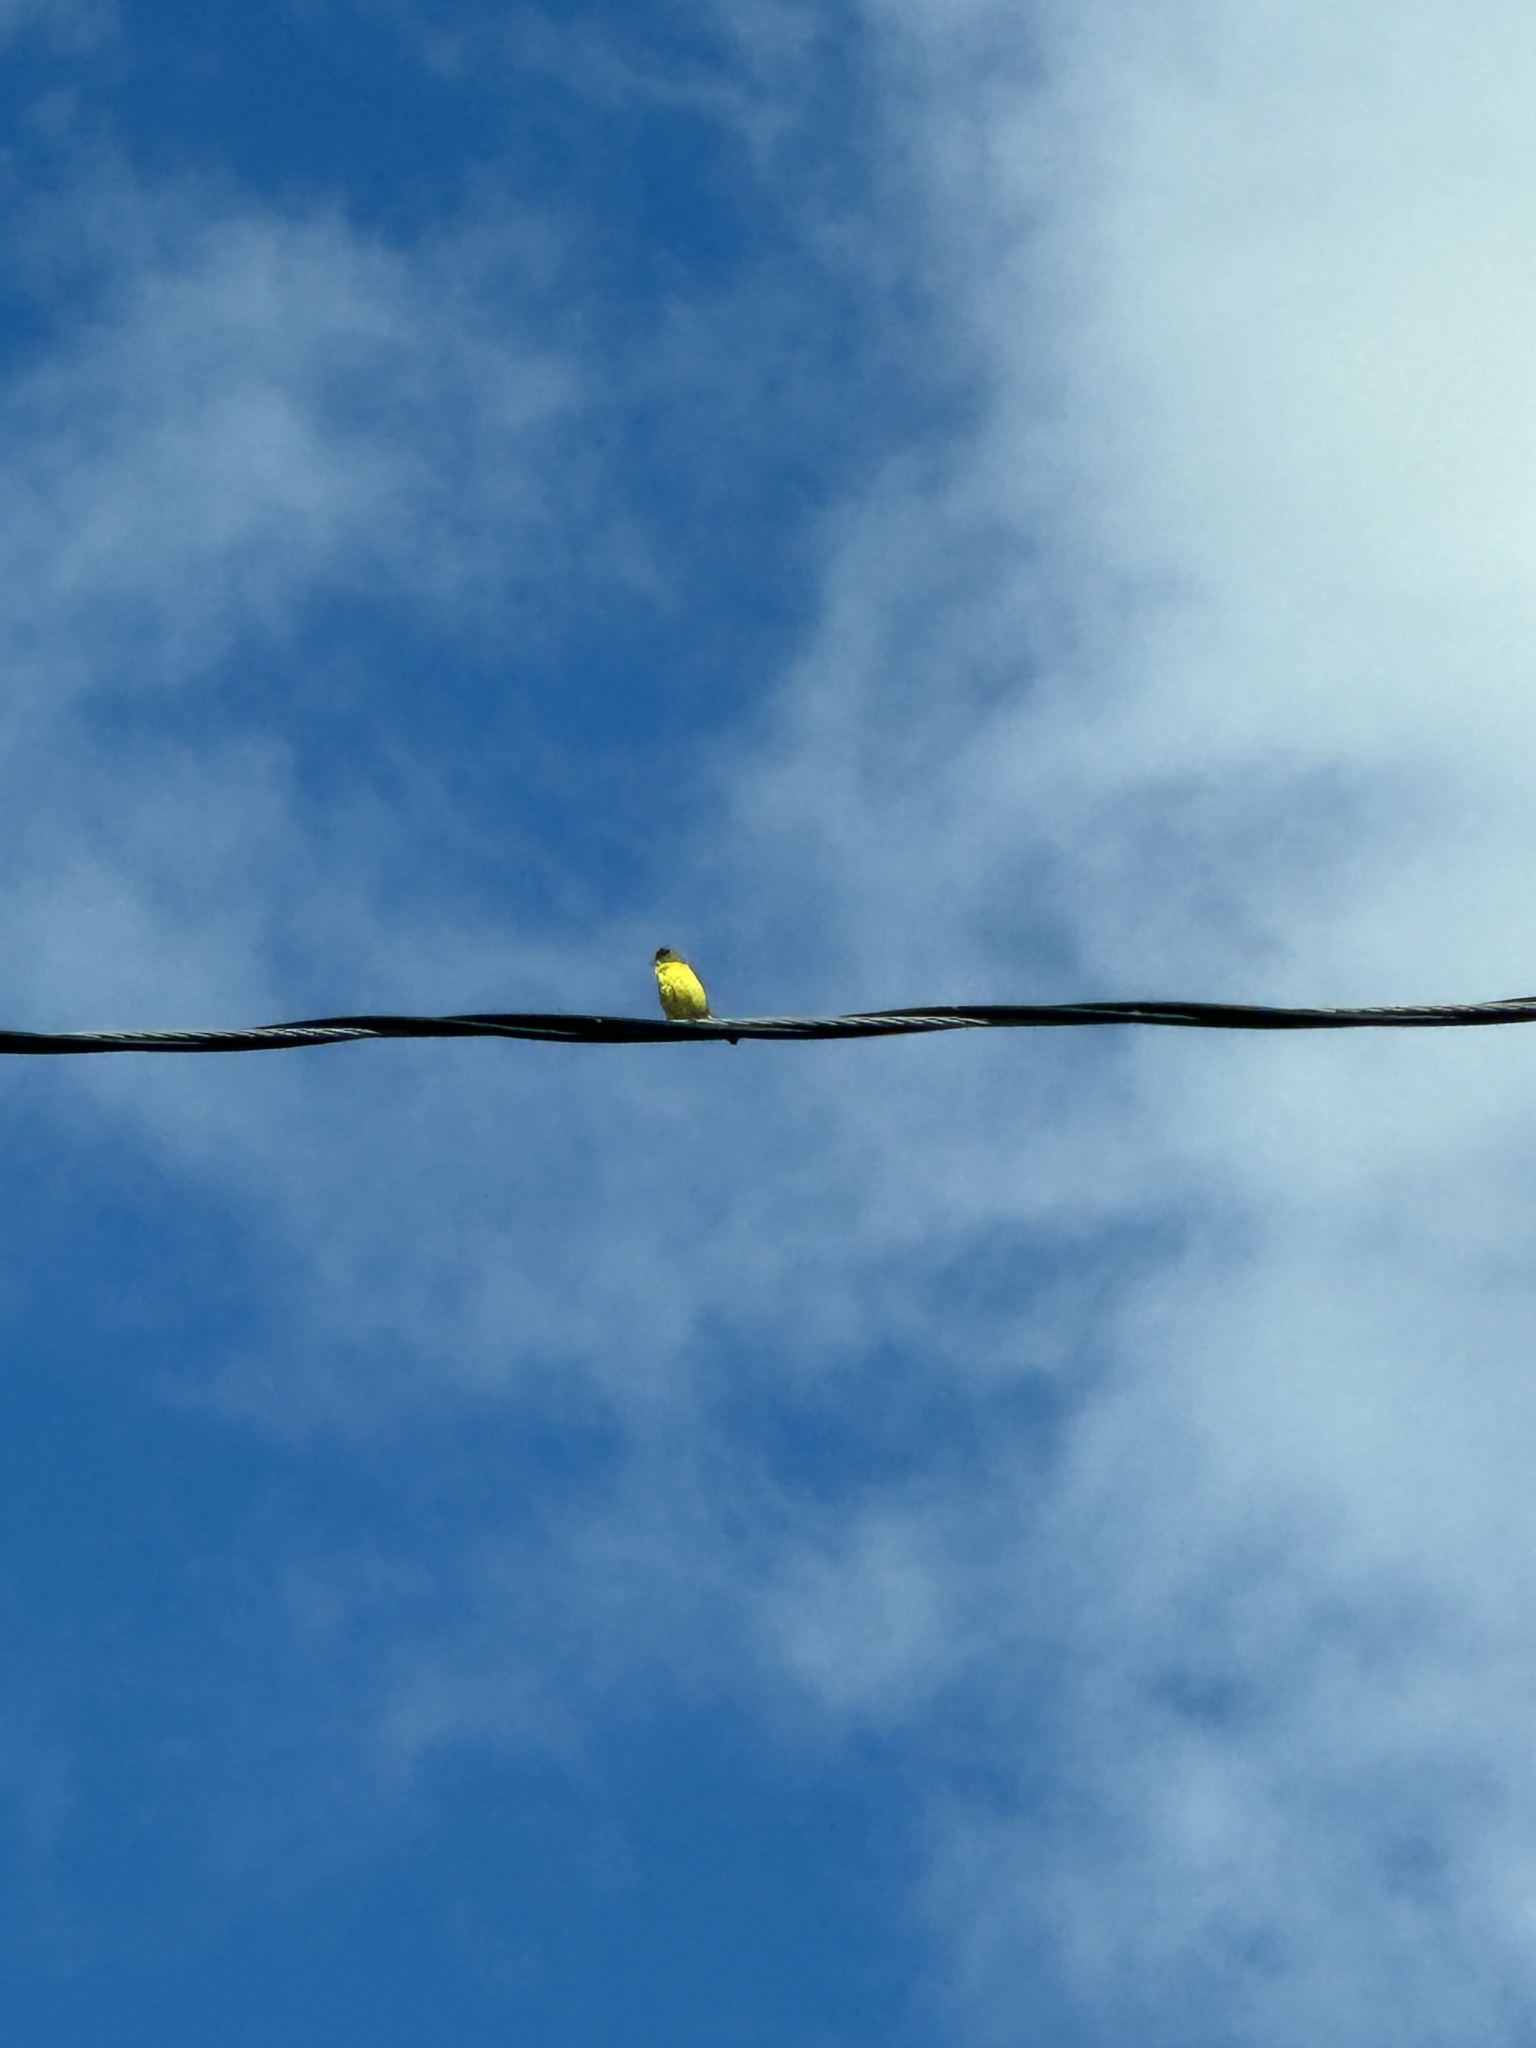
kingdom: Animalia
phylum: Chordata
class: Aves
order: Passeriformes
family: Fringillidae
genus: Spinus
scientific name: Spinus psaltria
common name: Lesser goldfinch
